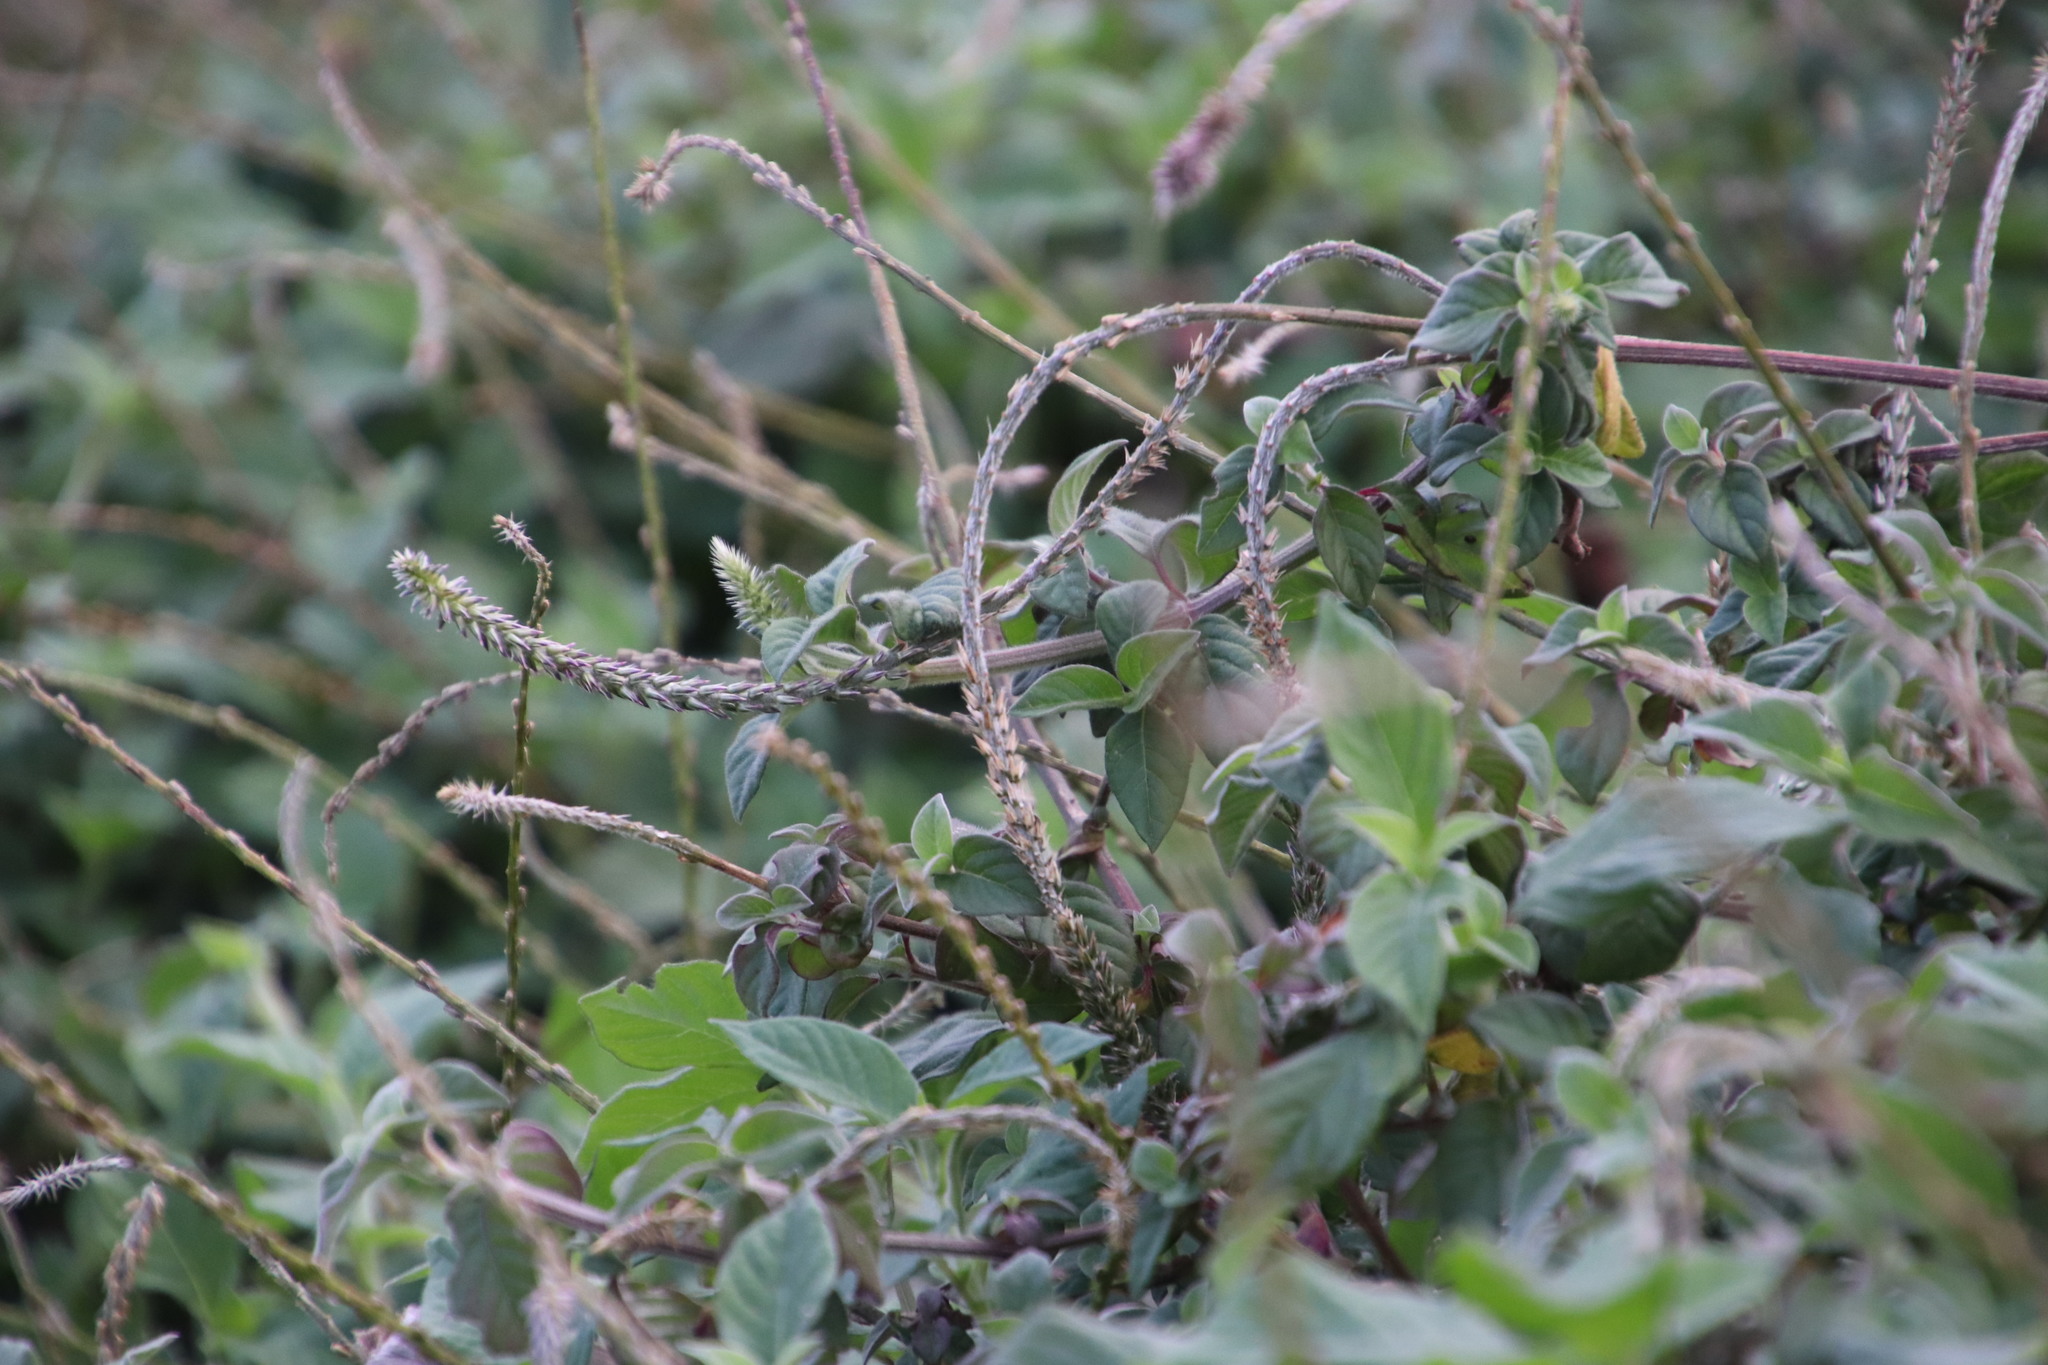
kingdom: Plantae
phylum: Tracheophyta
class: Magnoliopsida
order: Caryophyllales
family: Amaranthaceae
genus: Achyranthes
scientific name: Achyranthes aspera
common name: Devil's horsewhip
